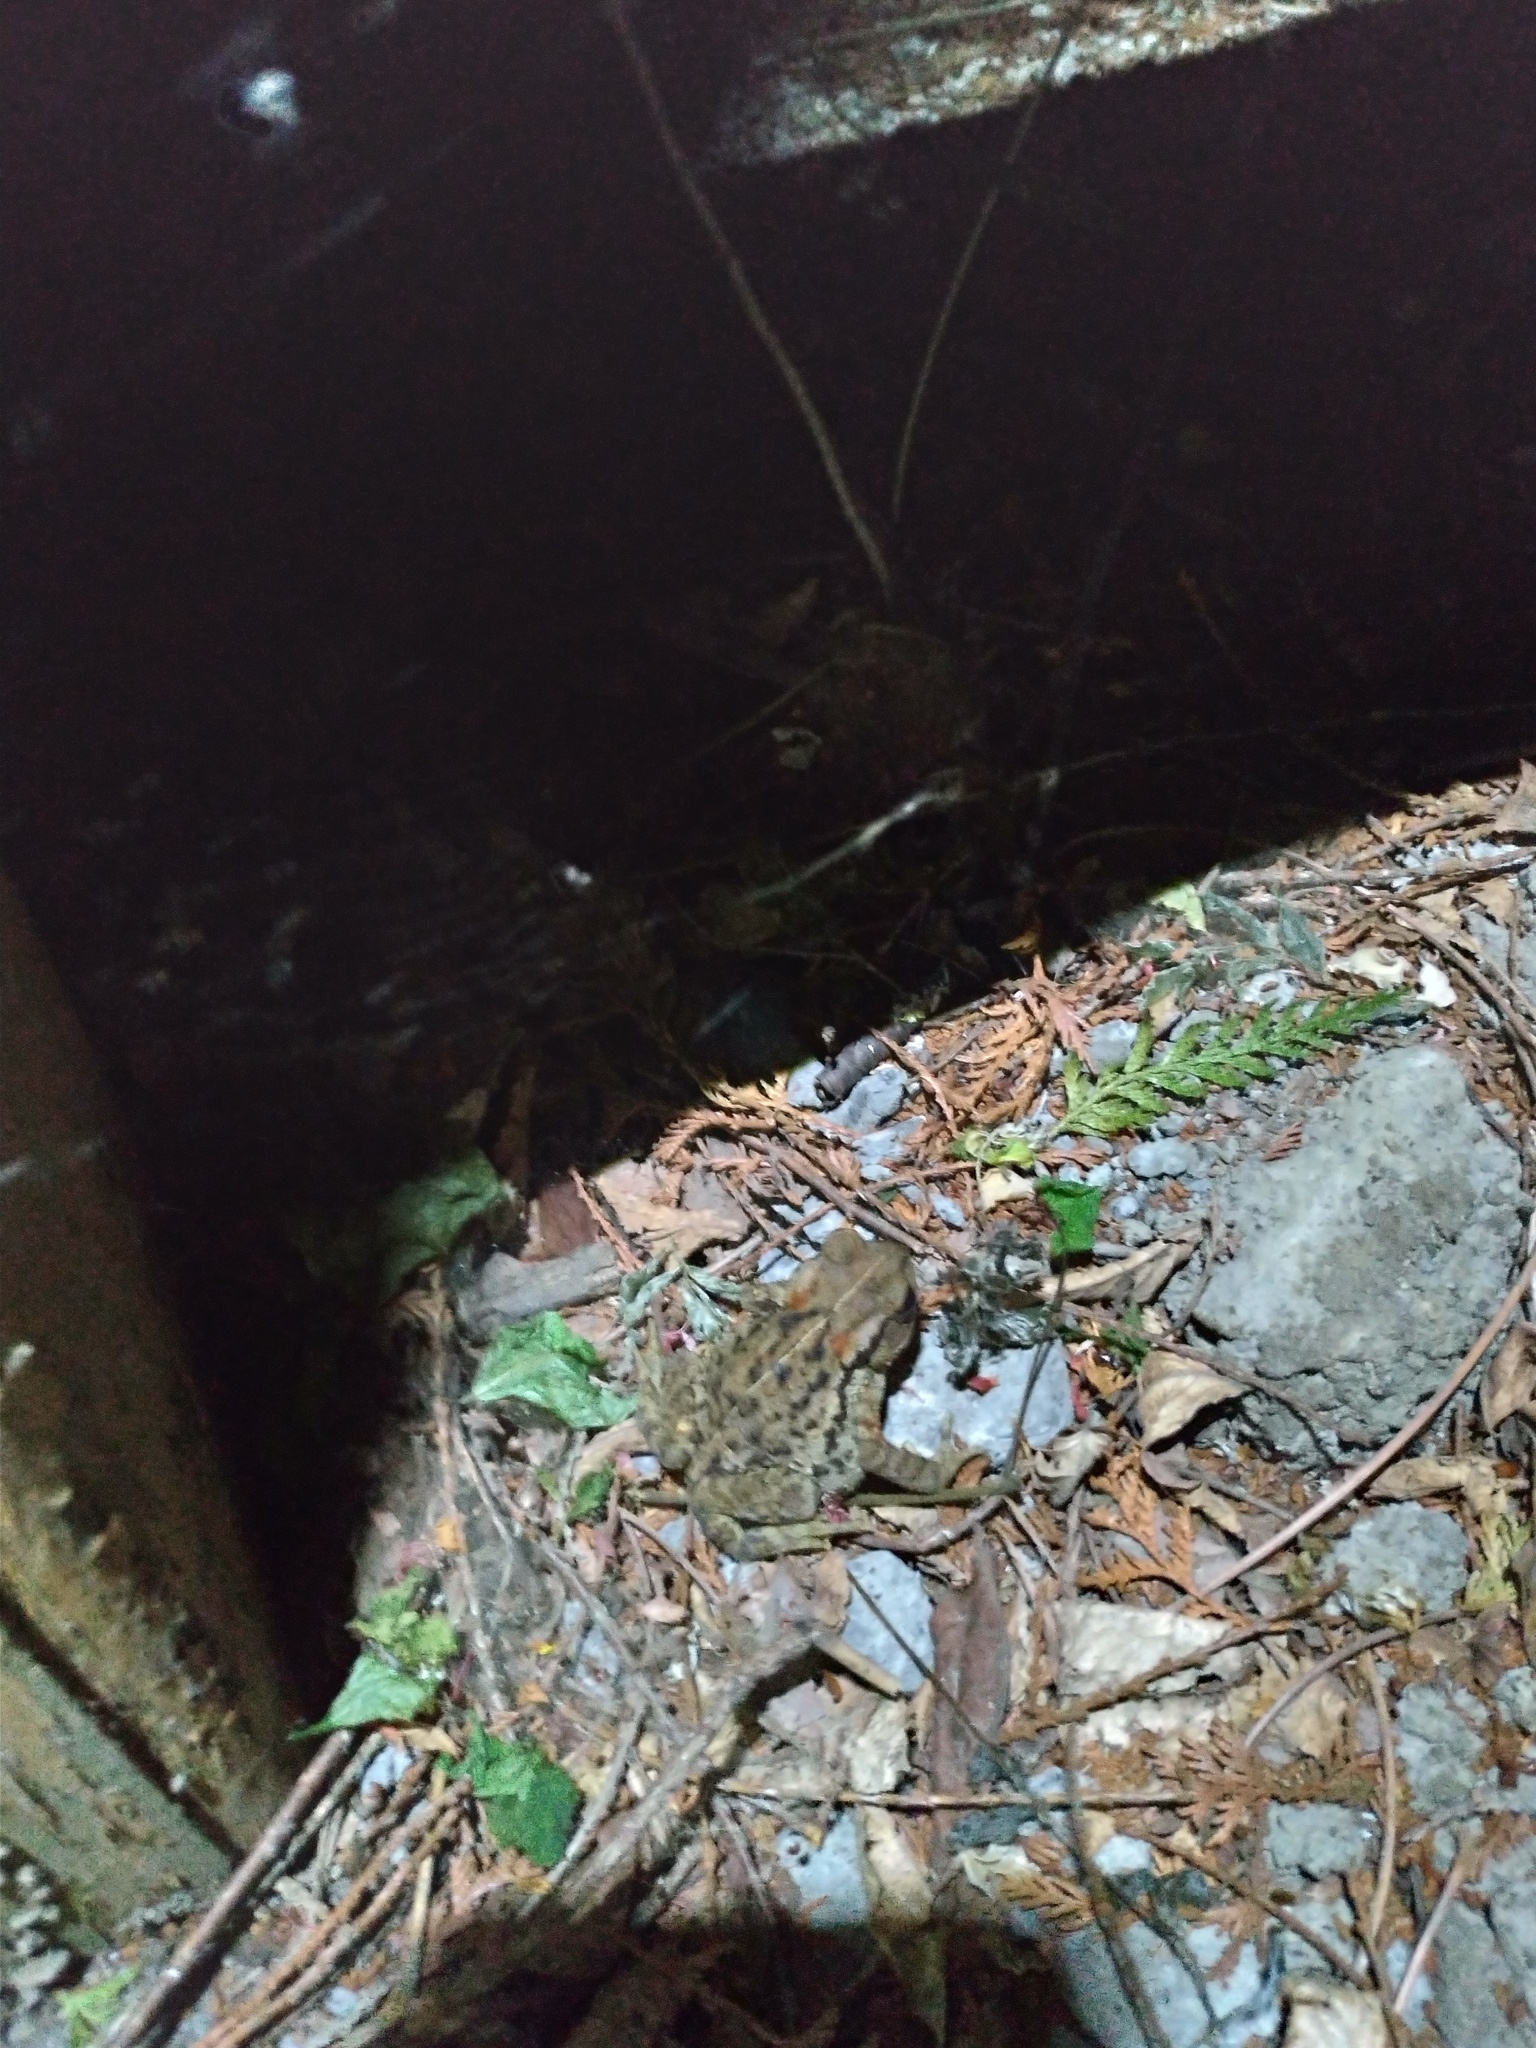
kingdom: Animalia
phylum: Chordata
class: Amphibia
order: Anura
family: Bufonidae
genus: Bufo
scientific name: Bufo bankorensis
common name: Bankor toad
